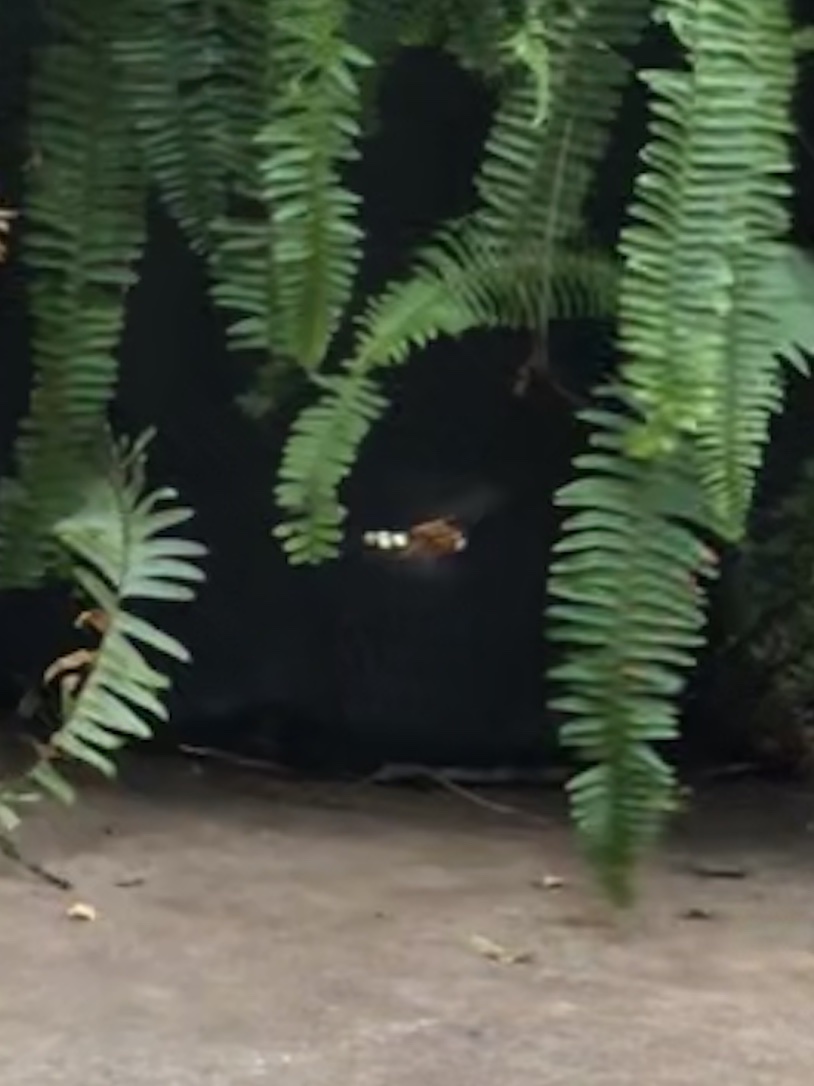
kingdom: Animalia
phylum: Arthropoda
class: Insecta
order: Hymenoptera
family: Crabronidae
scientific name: Crabronidae
